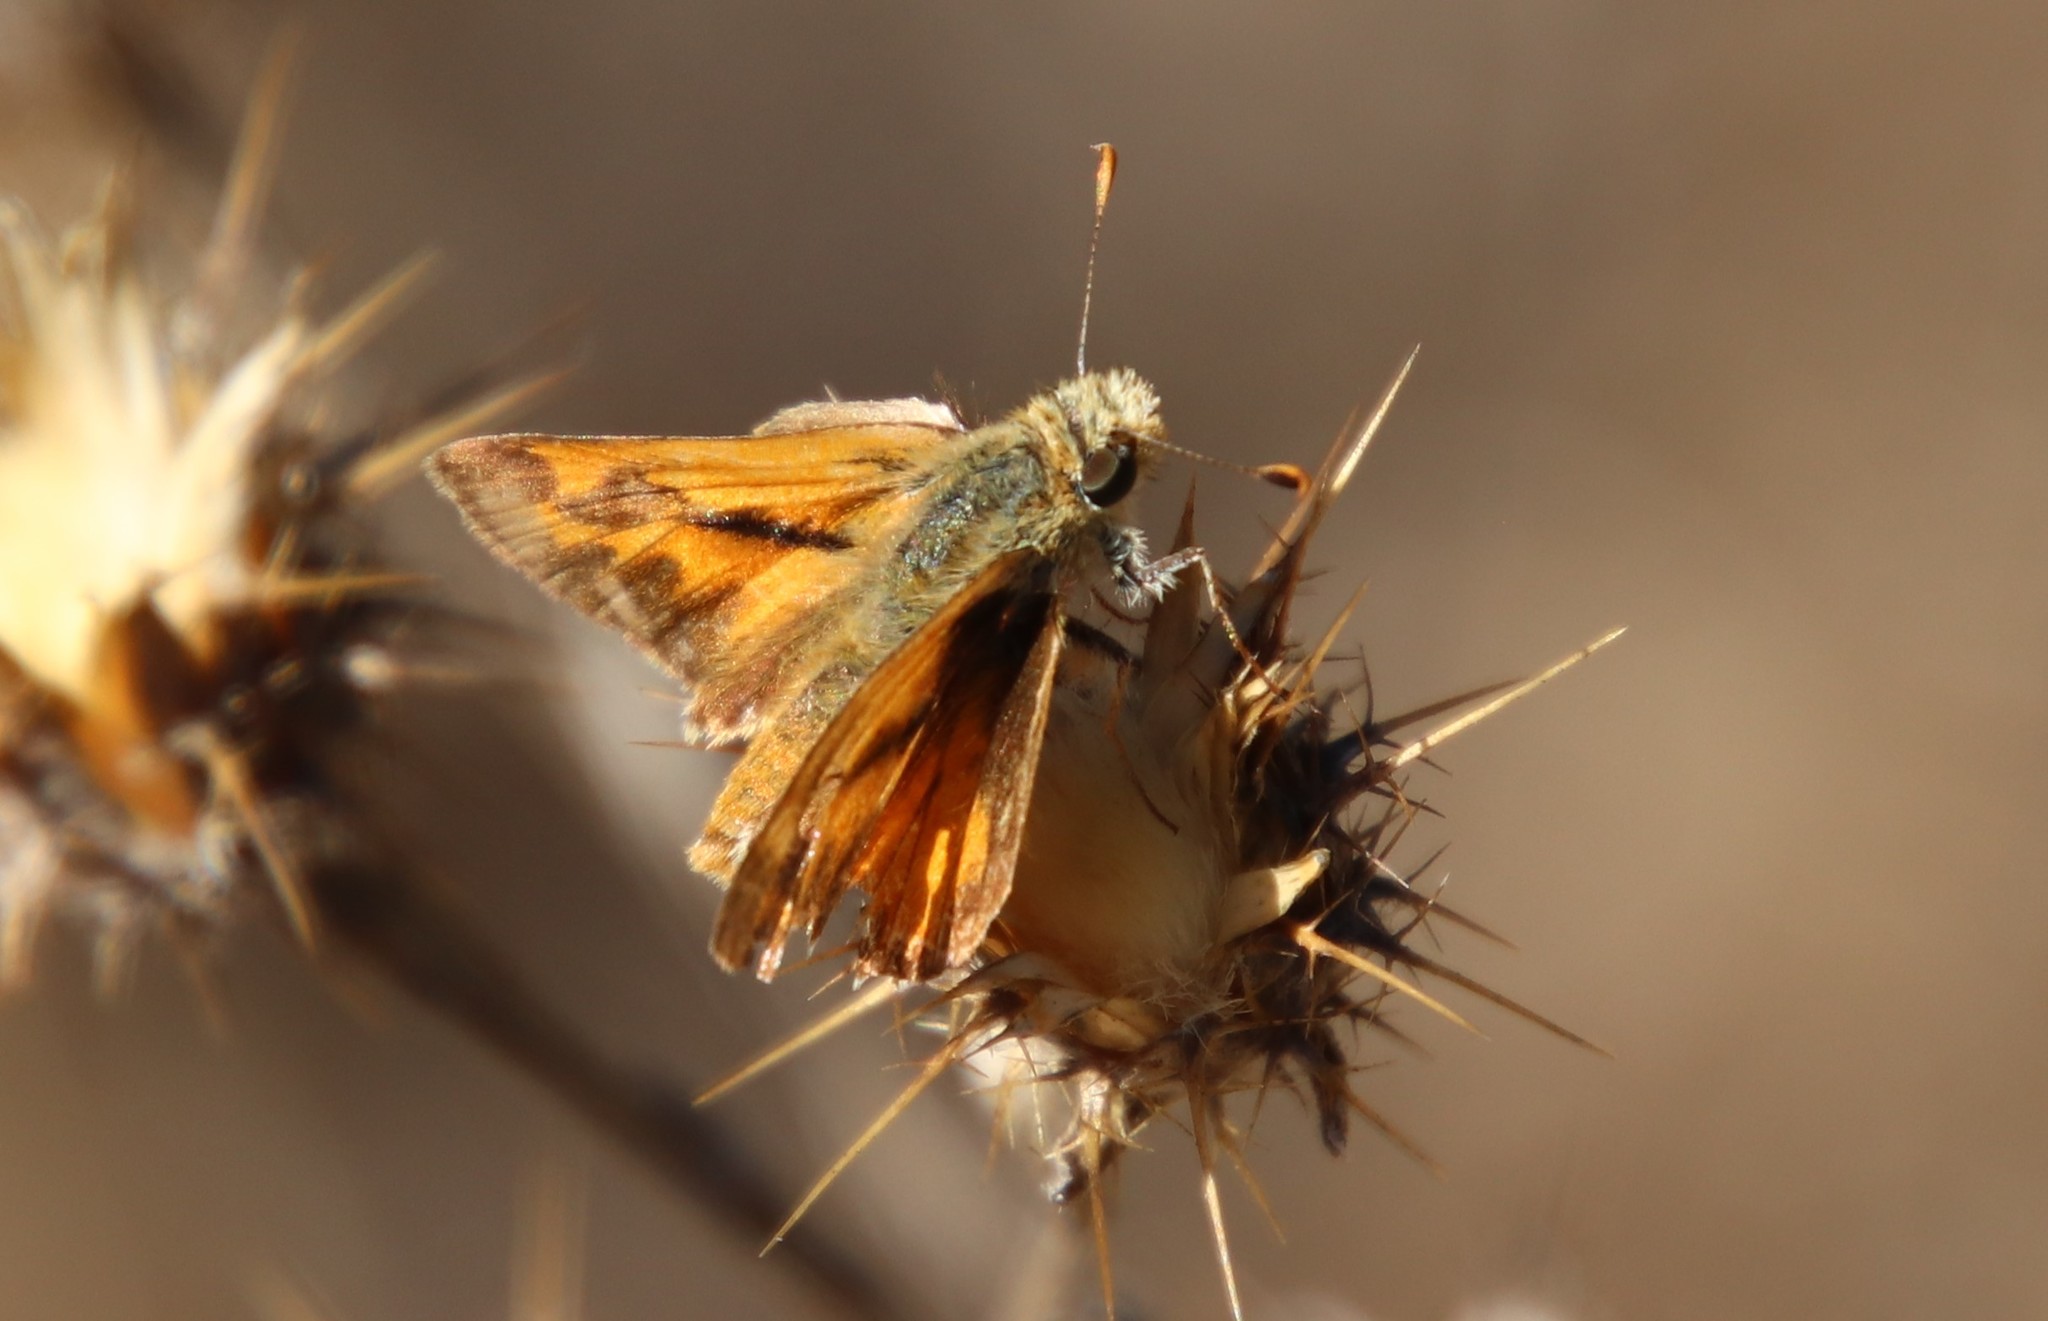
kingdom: Animalia
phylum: Arthropoda
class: Insecta
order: Lepidoptera
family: Hesperiidae
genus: Ochlodes
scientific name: Ochlodes sylvanoides
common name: Woodland skipper
